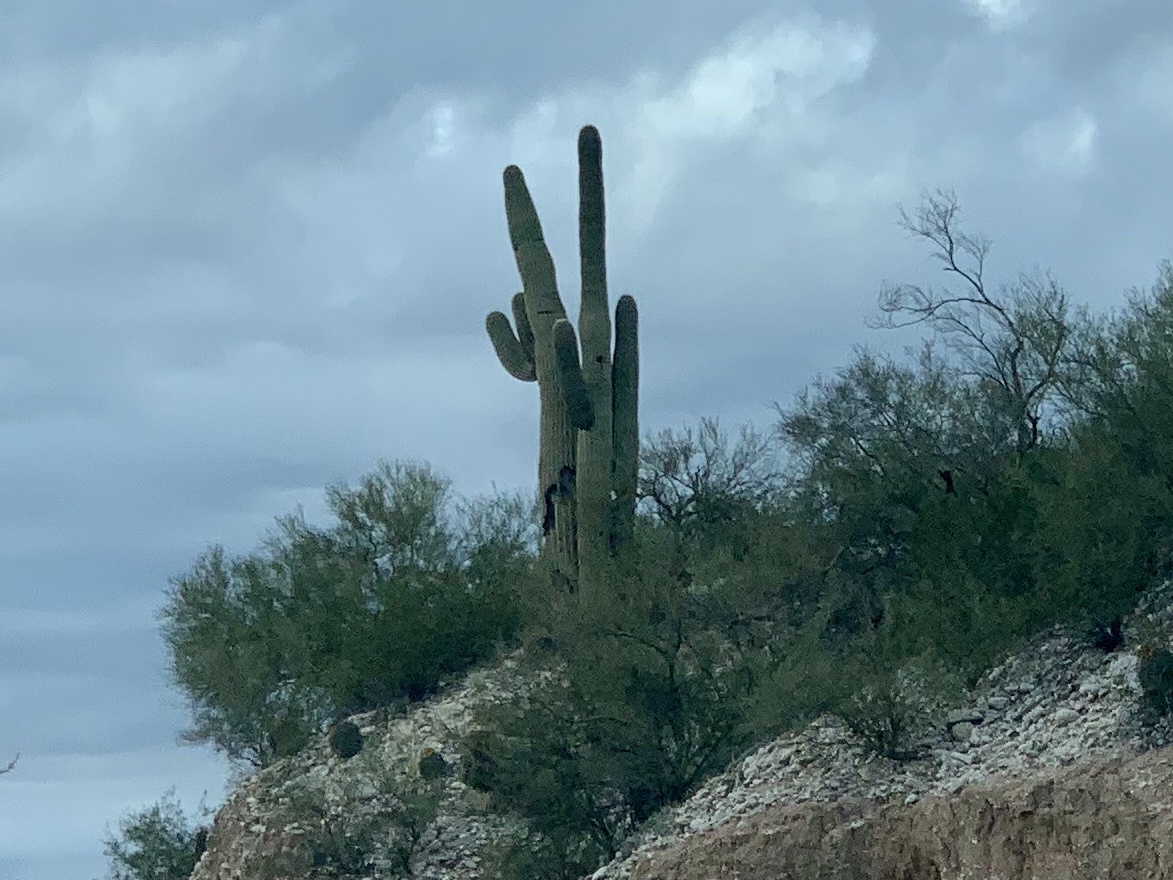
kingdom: Plantae
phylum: Tracheophyta
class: Magnoliopsida
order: Caryophyllales
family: Cactaceae
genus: Carnegiea
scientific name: Carnegiea gigantea
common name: Saguaro
